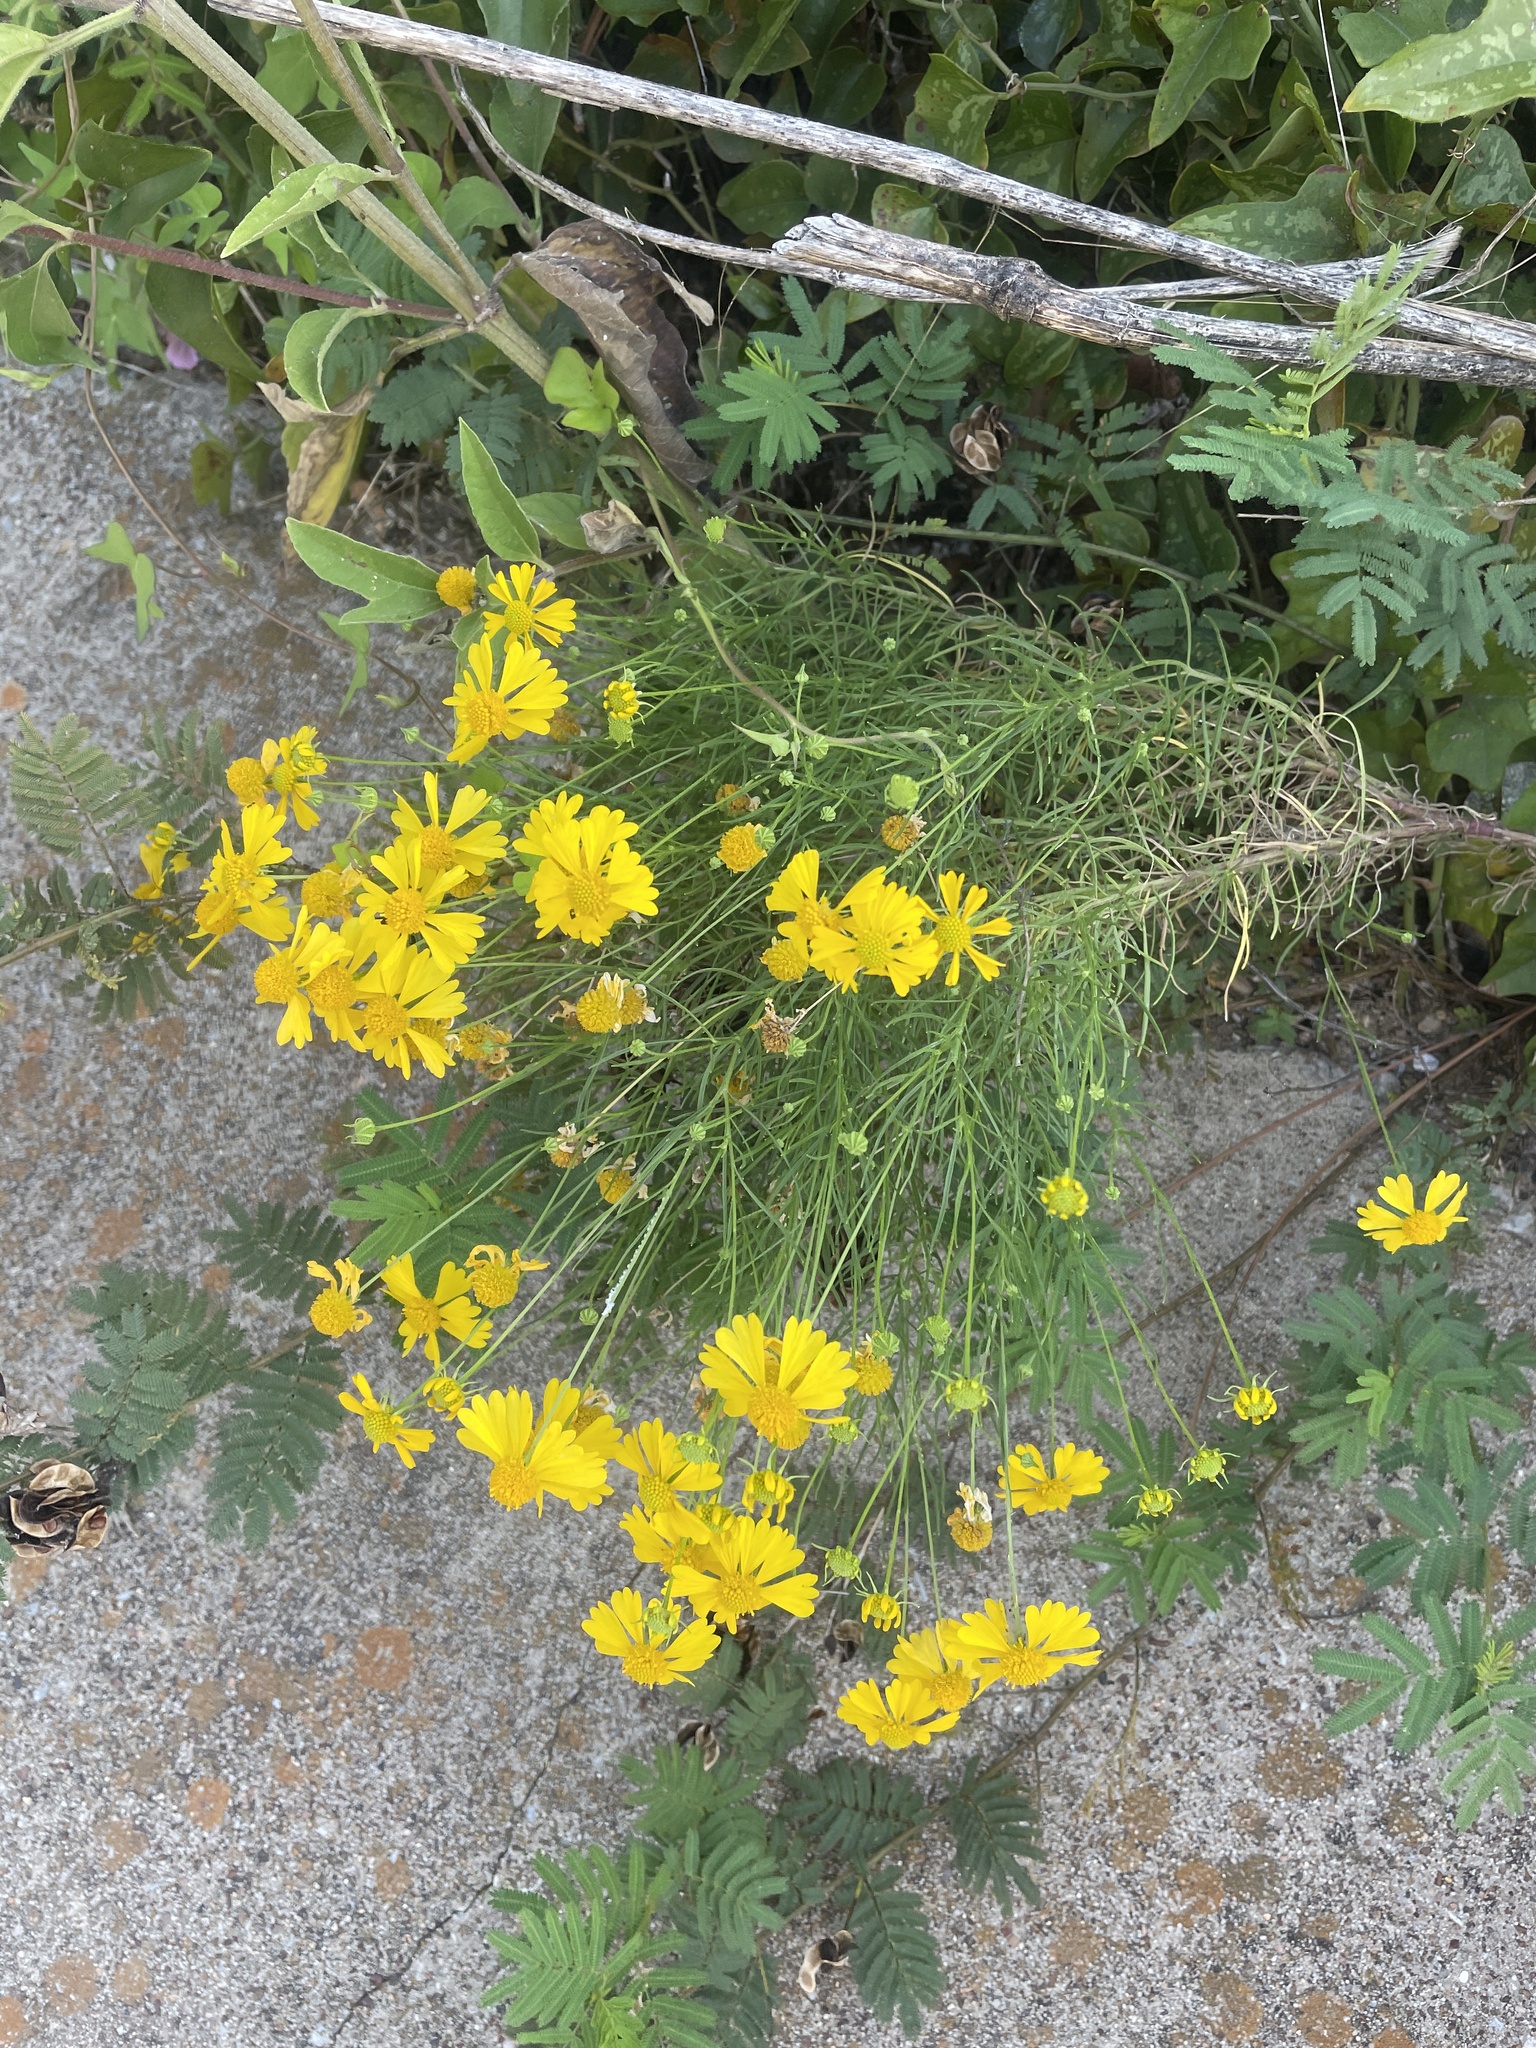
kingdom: Plantae
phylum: Tracheophyta
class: Magnoliopsida
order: Asterales
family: Asteraceae
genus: Helenium
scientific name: Helenium amarum
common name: Bitter sneezeweed
